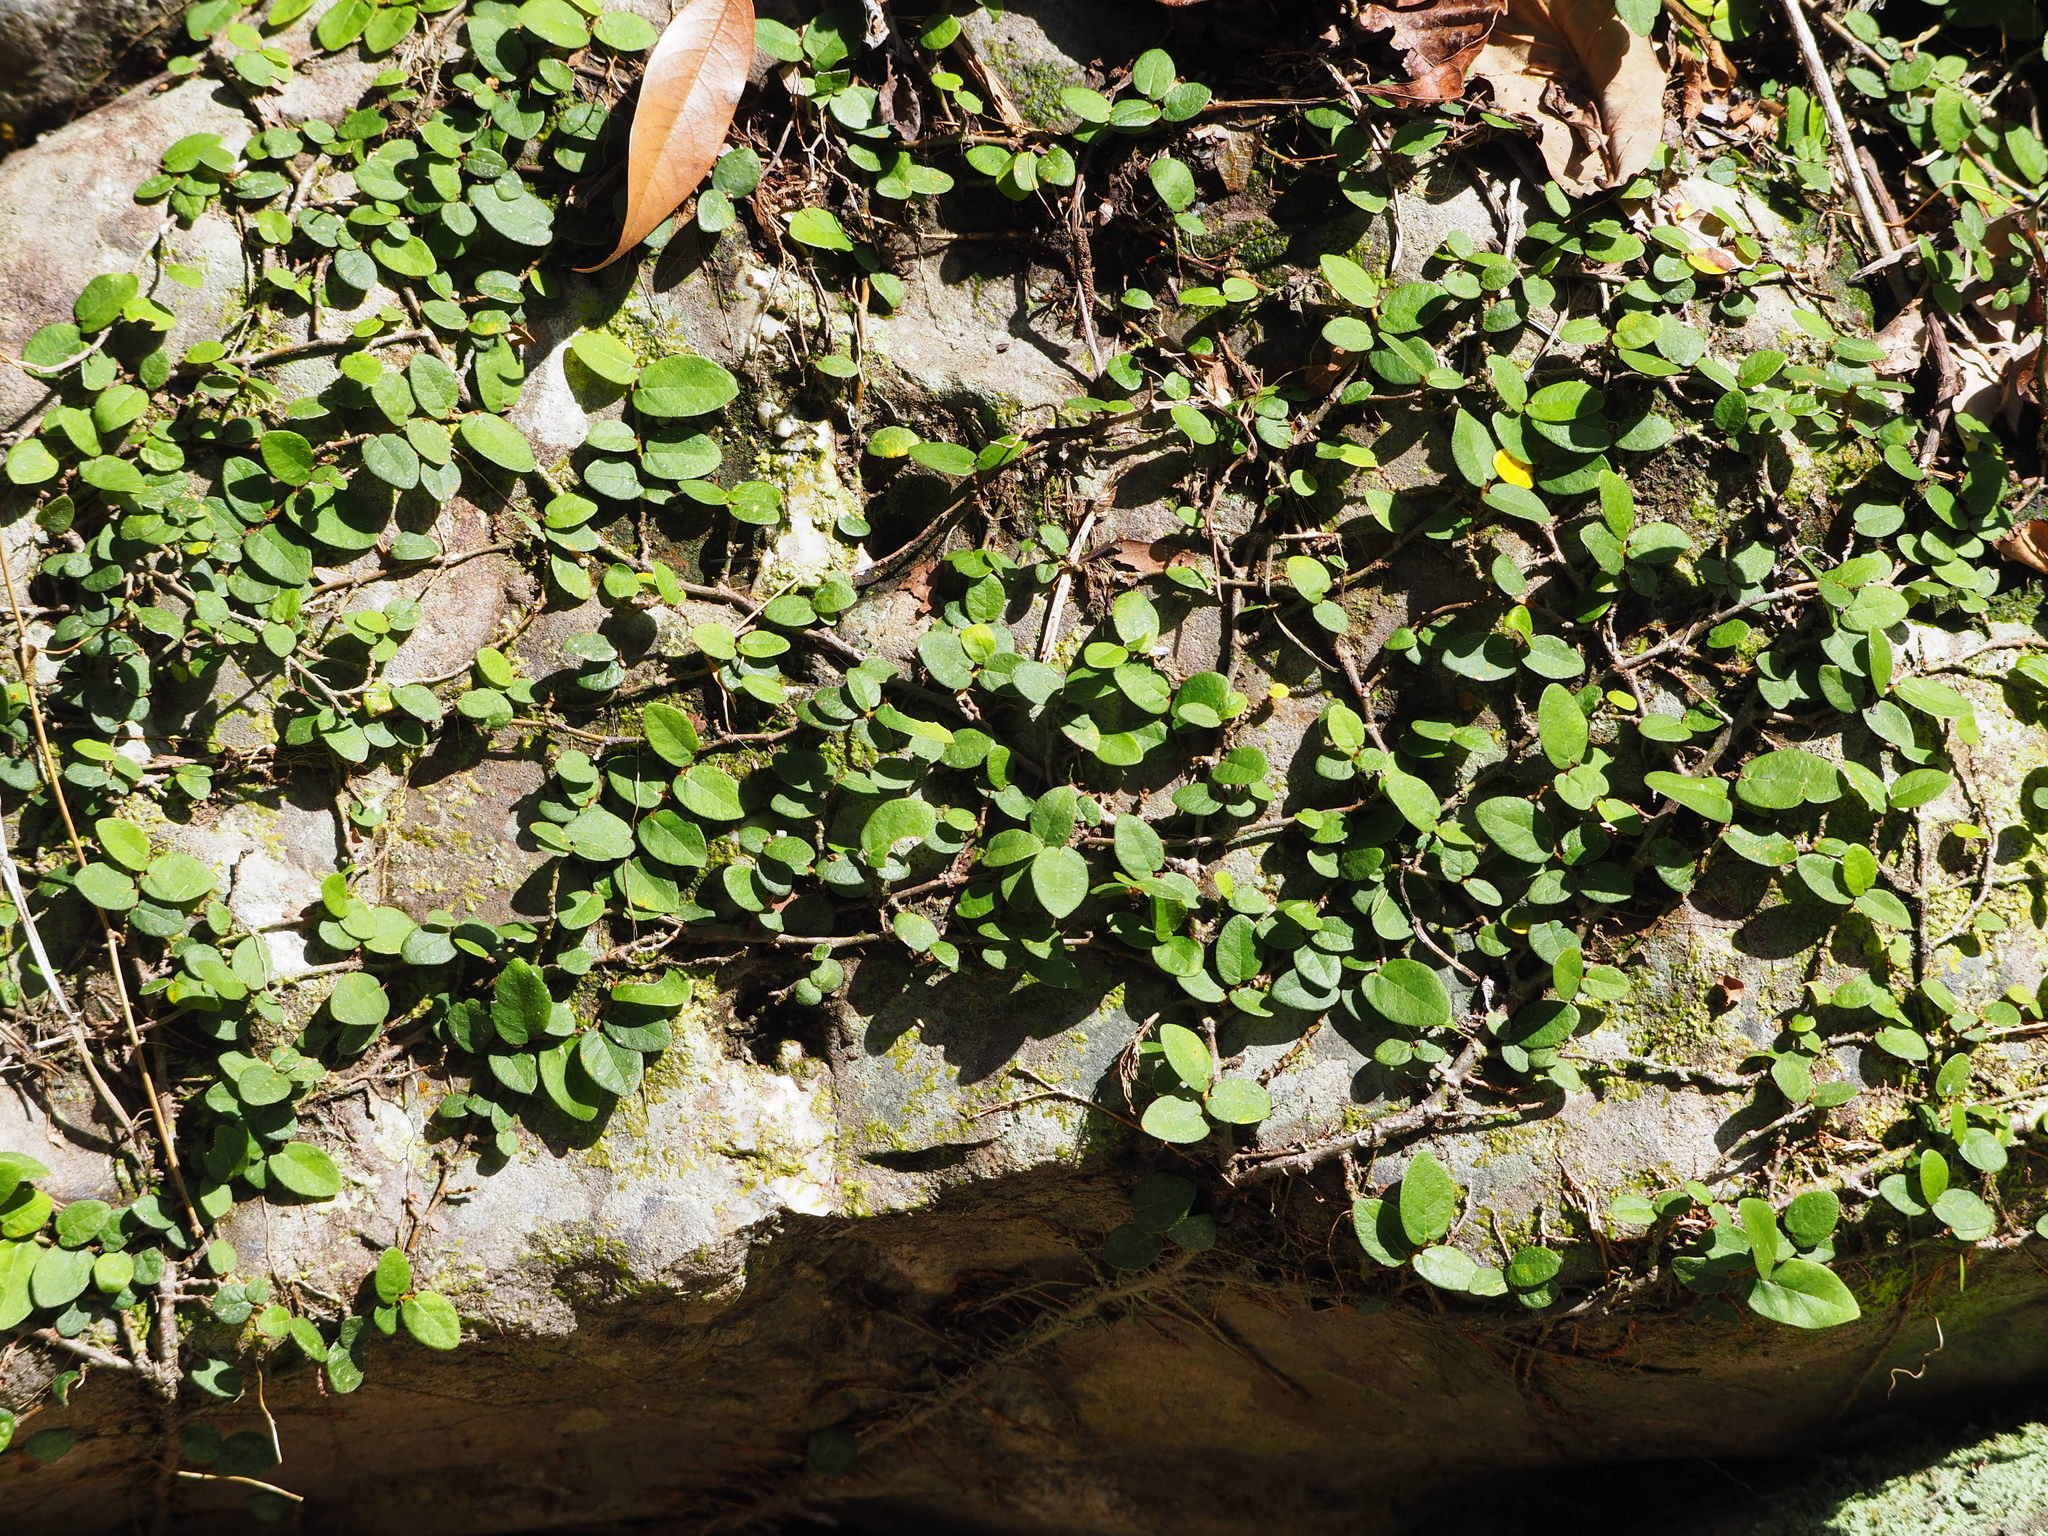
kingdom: Plantae
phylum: Tracheophyta
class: Magnoliopsida
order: Rosales
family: Moraceae
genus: Ficus
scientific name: Ficus pumila
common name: Climbingfig
